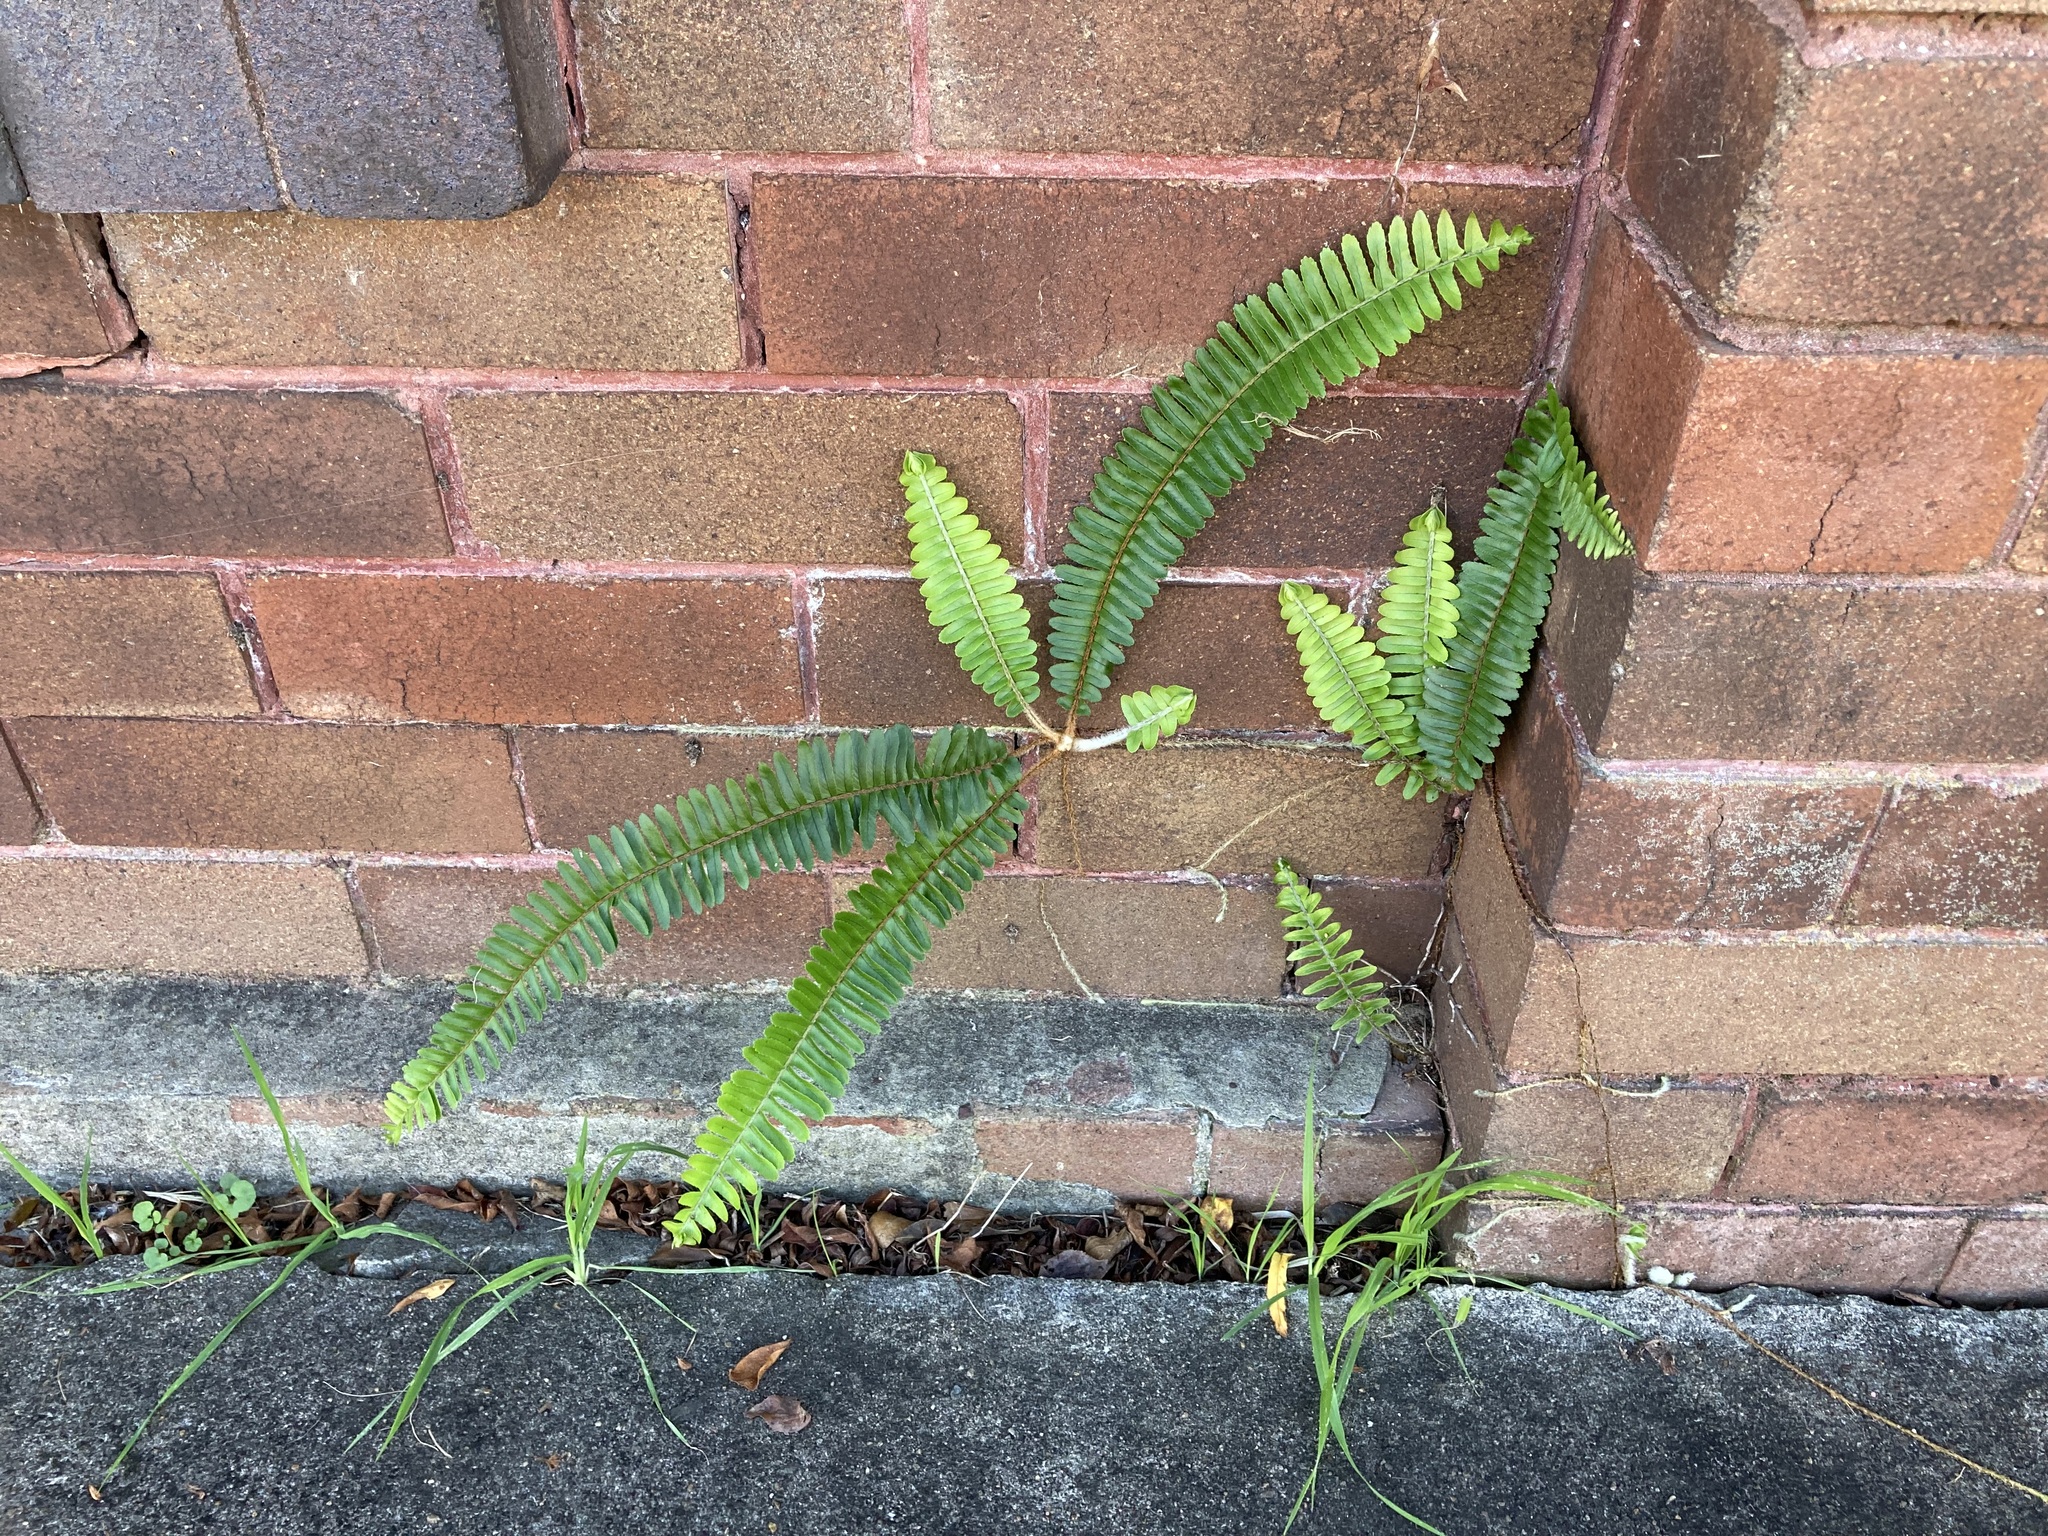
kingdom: Plantae
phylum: Tracheophyta
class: Polypodiopsida
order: Polypodiales
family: Nephrolepidaceae
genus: Nephrolepis
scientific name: Nephrolepis cordifolia
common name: Narrow swordfern
